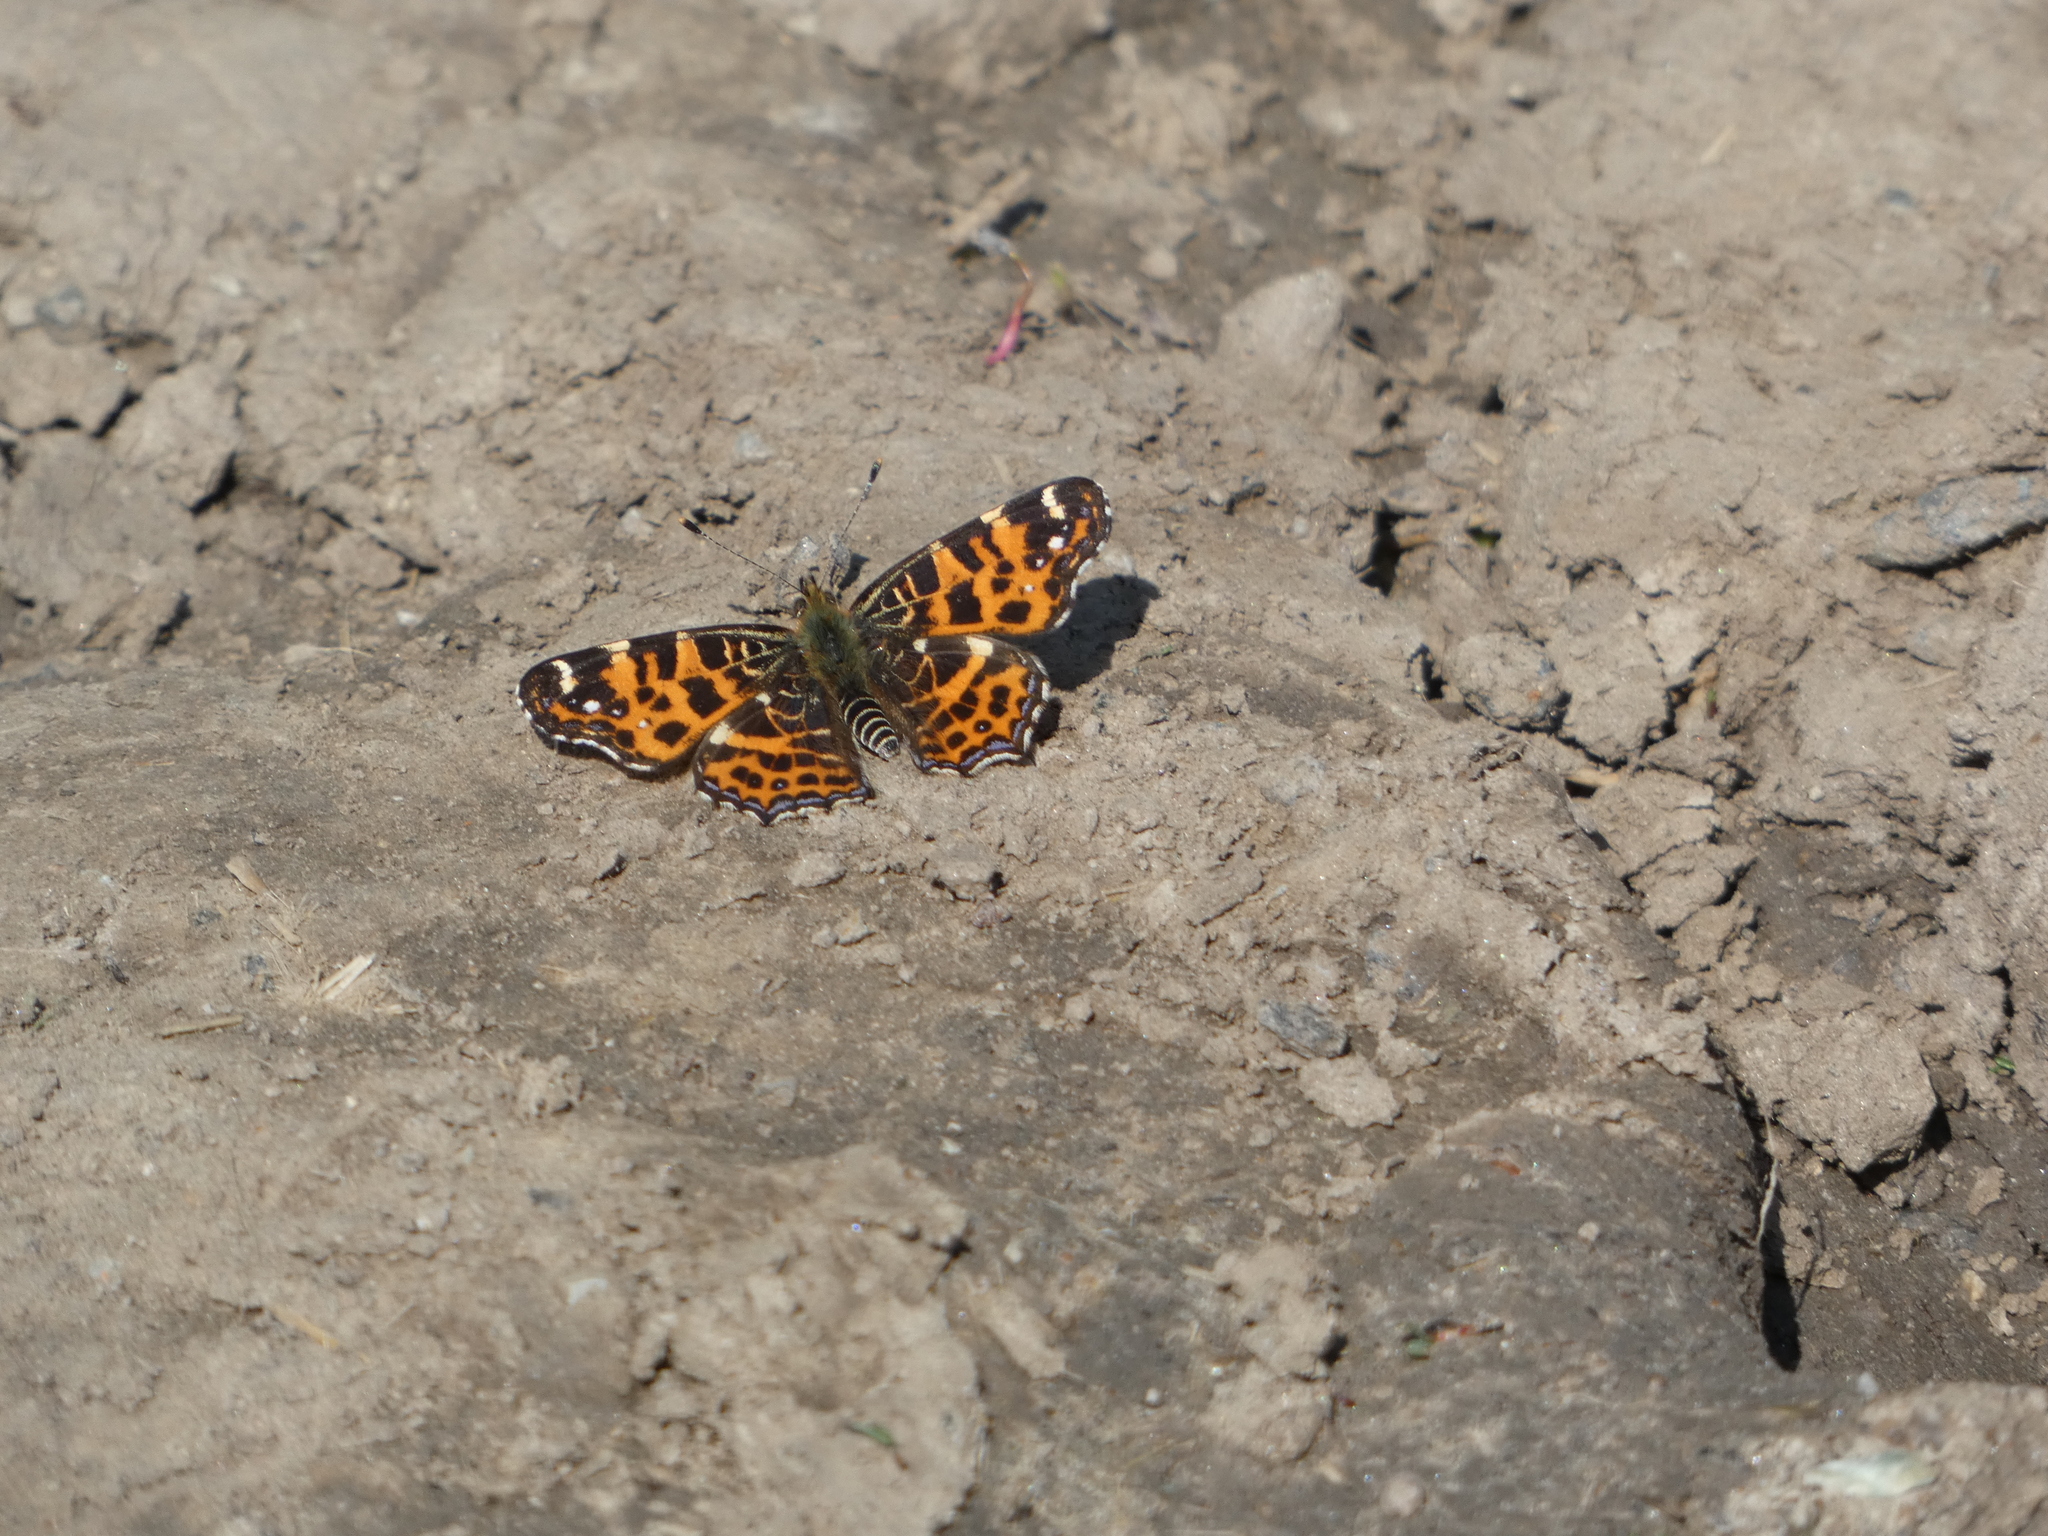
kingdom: Animalia
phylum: Arthropoda
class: Insecta
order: Lepidoptera
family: Nymphalidae
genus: Araschnia
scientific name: Araschnia levana
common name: Map butterfly
